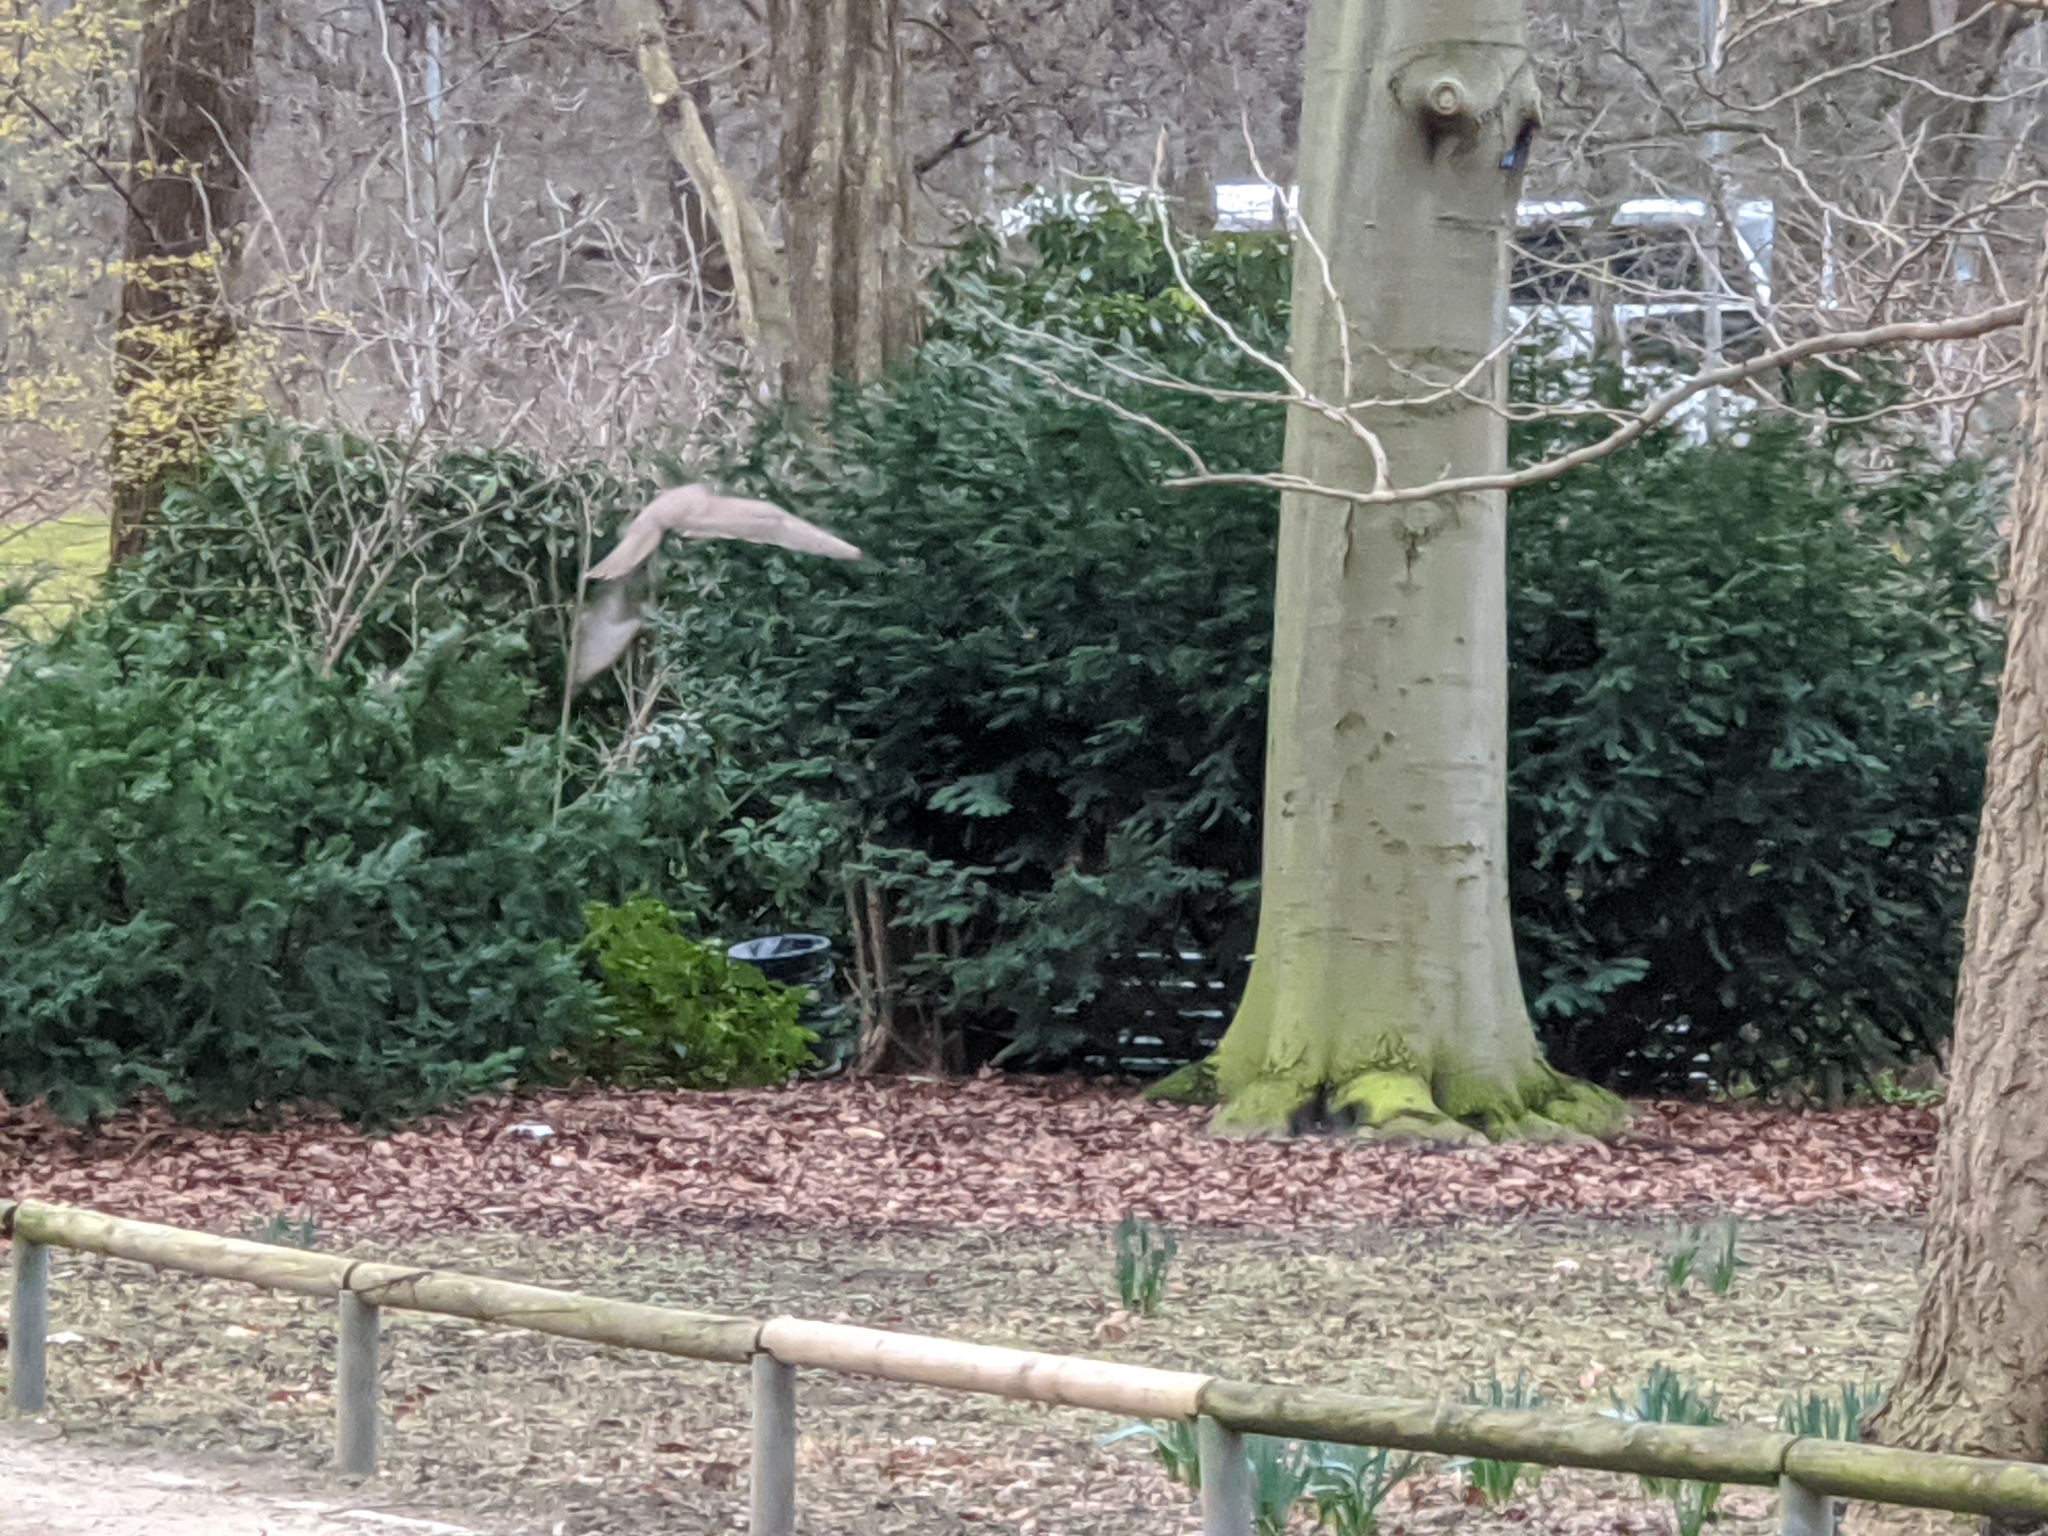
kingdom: Animalia
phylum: Chordata
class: Aves
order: Accipitriformes
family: Accipitridae
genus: Buteo
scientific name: Buteo buteo
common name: Common buzzard
